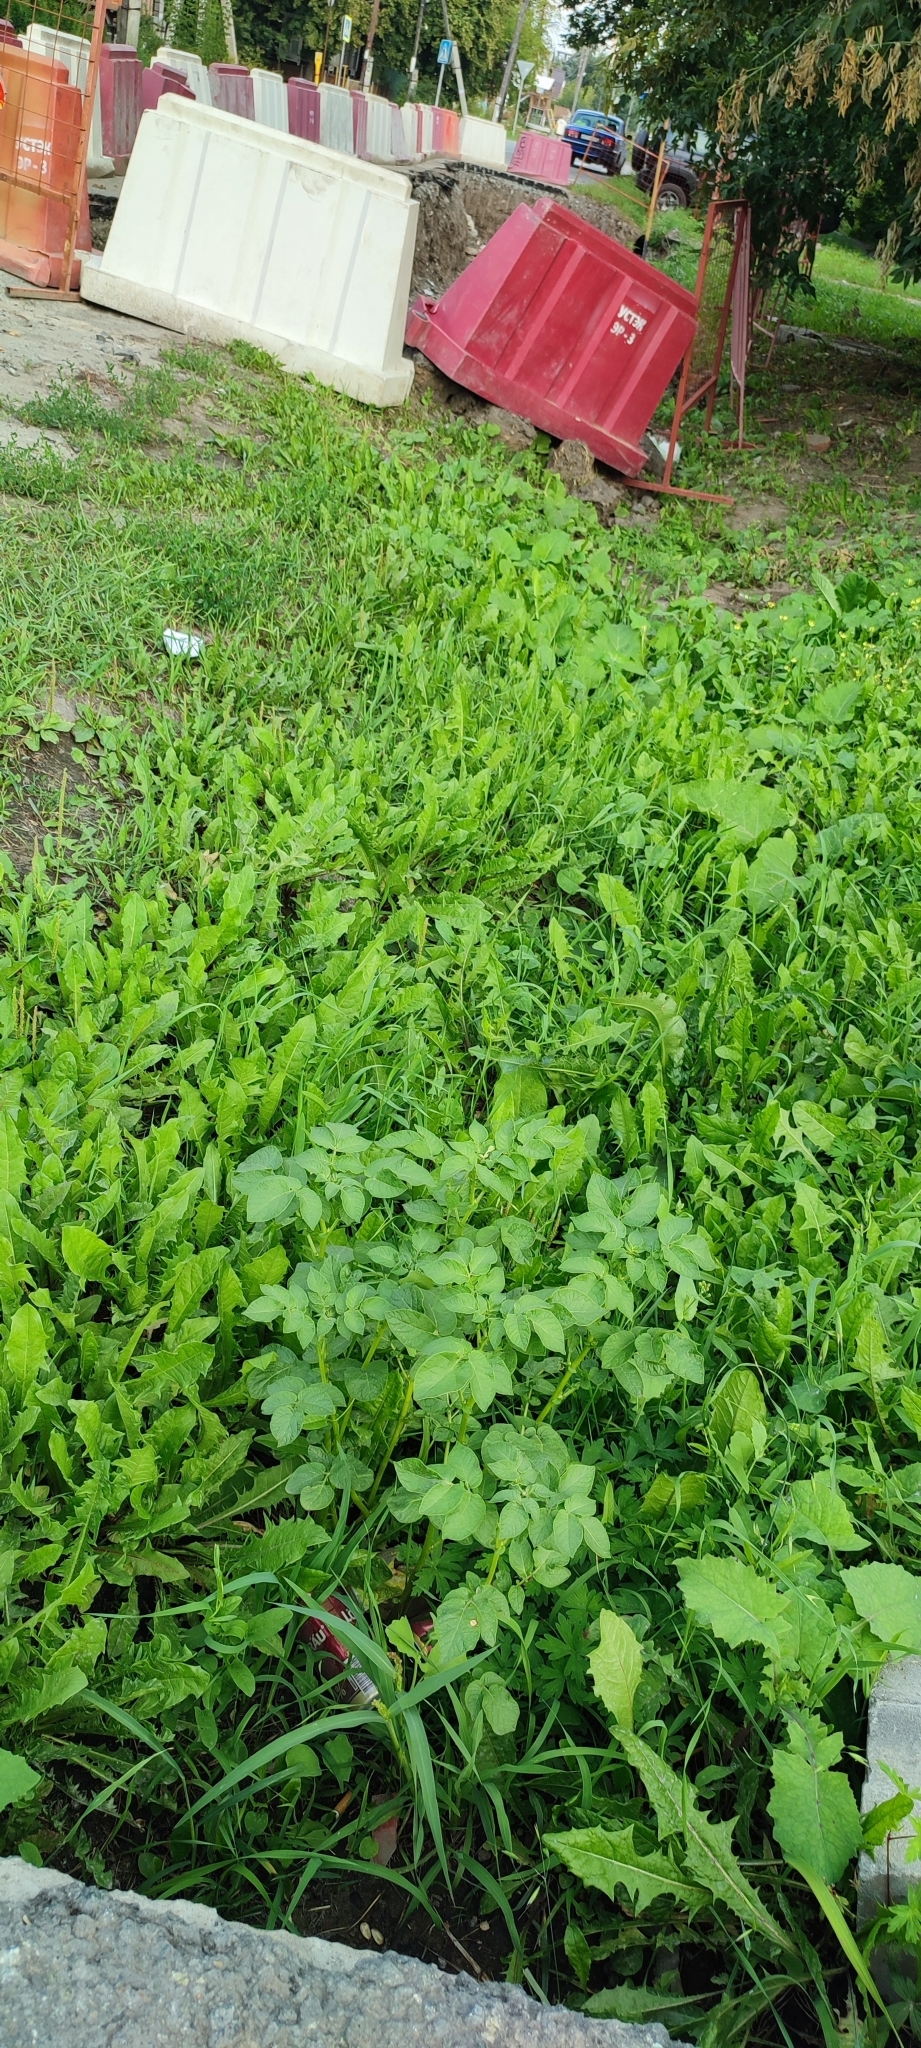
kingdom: Plantae
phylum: Tracheophyta
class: Magnoliopsida
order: Solanales
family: Solanaceae
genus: Solanum
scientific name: Solanum tuberosum
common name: Potato
